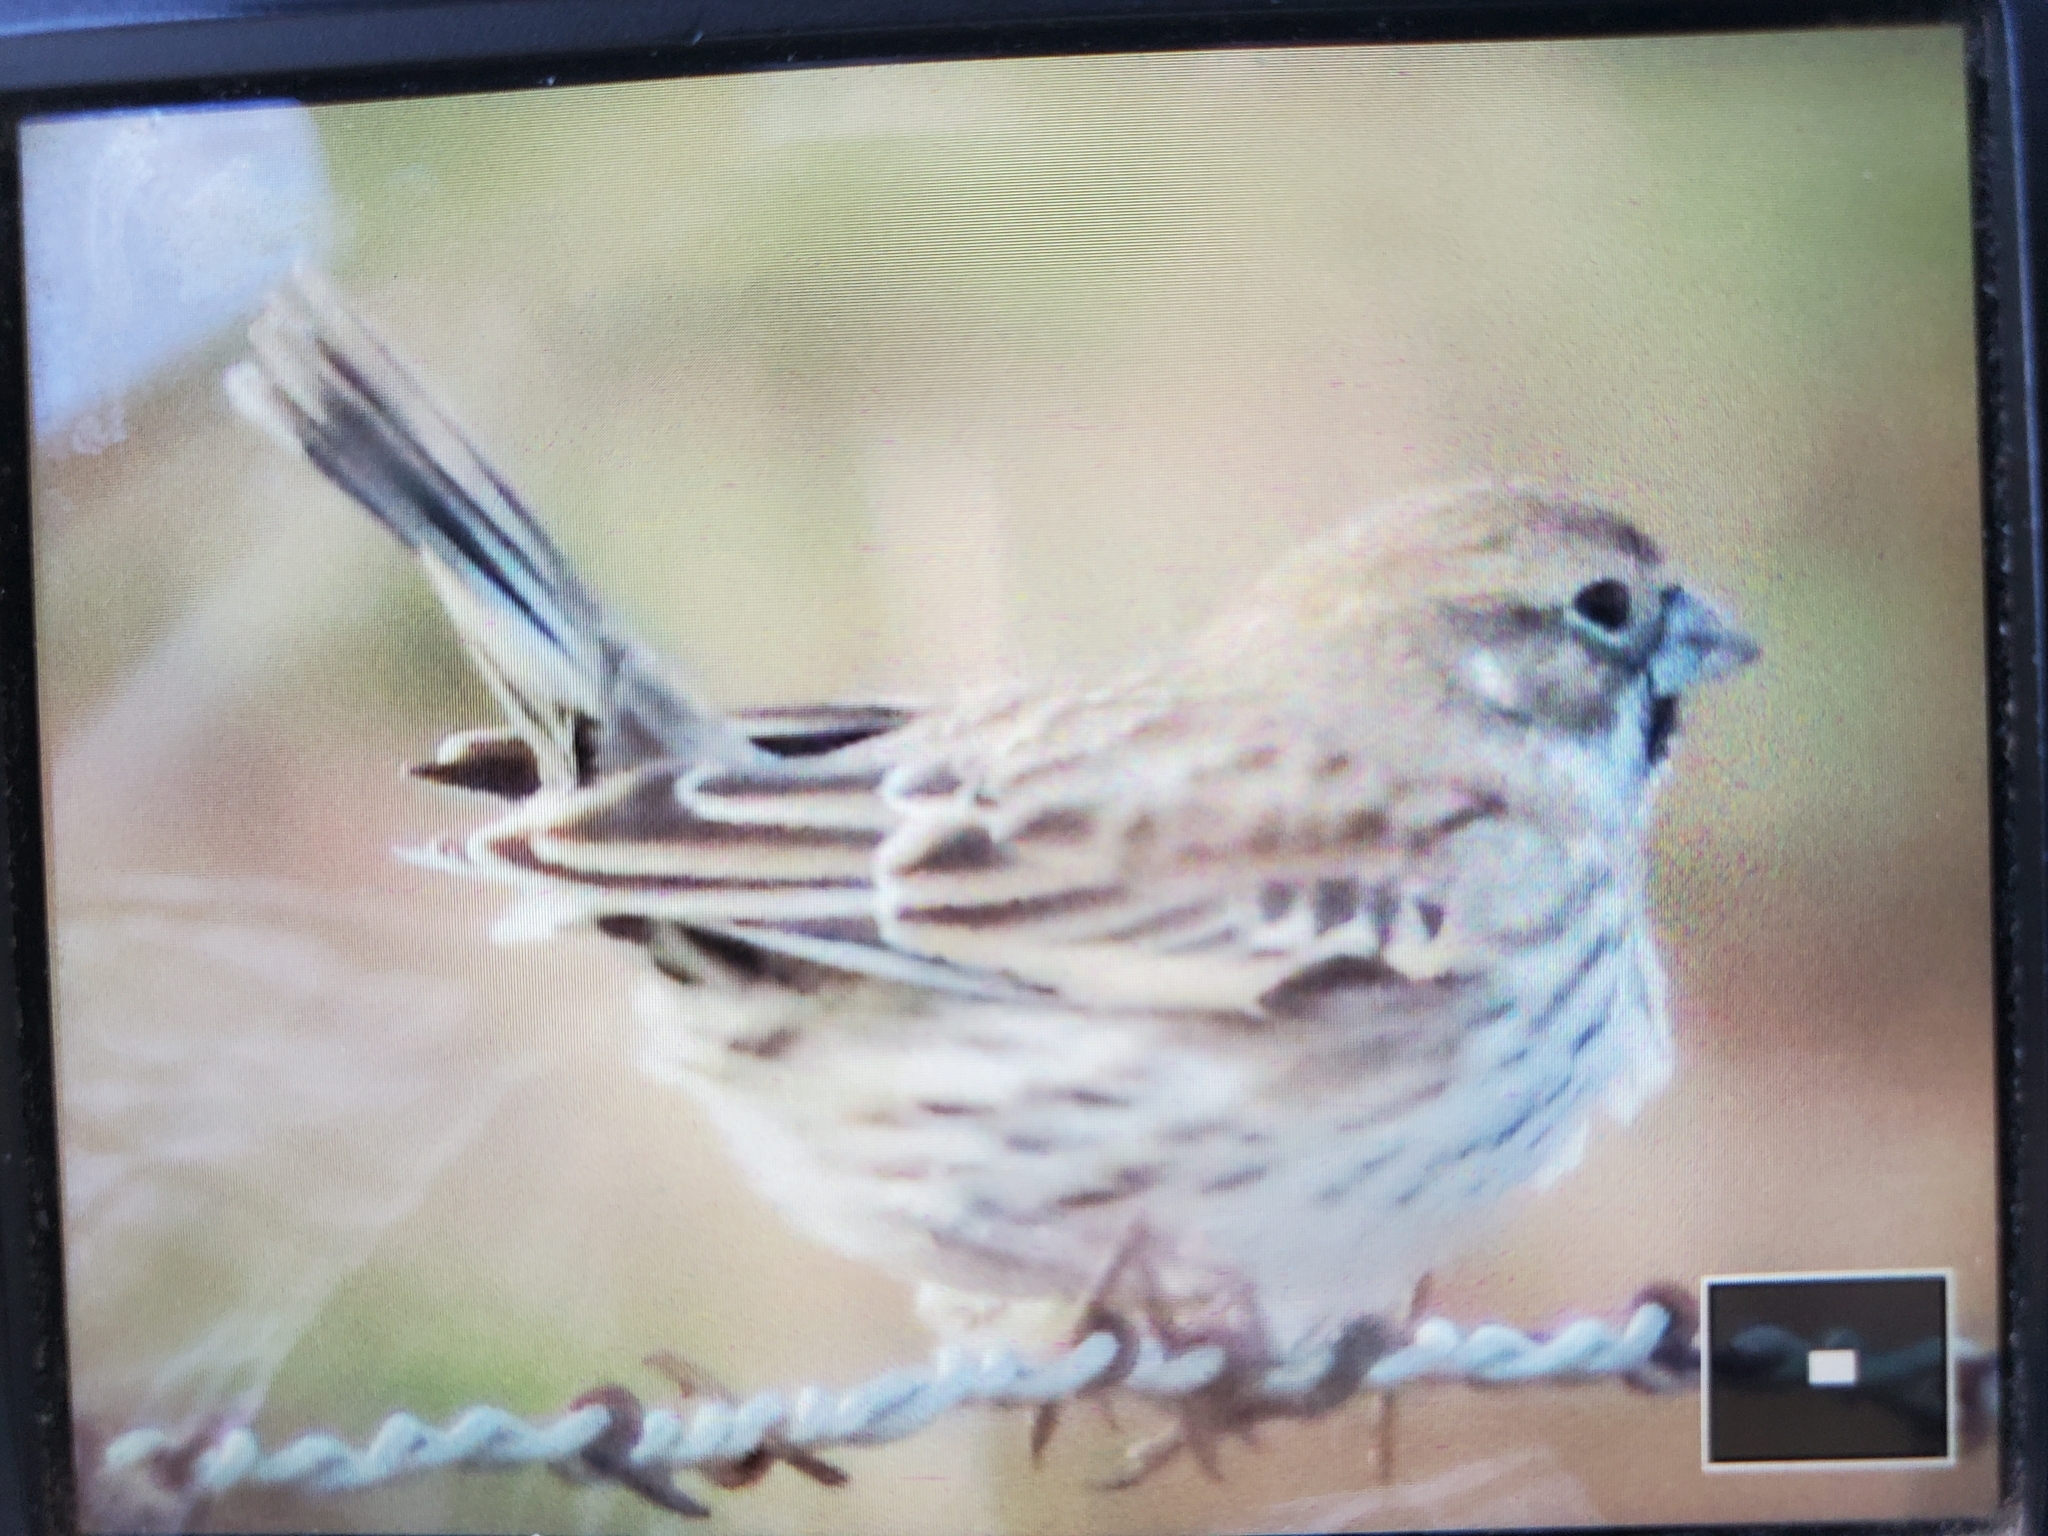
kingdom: Animalia
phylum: Chordata
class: Aves
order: Passeriformes
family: Passerellidae
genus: Calamospiza
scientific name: Calamospiza melanocorys
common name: Lark bunting
